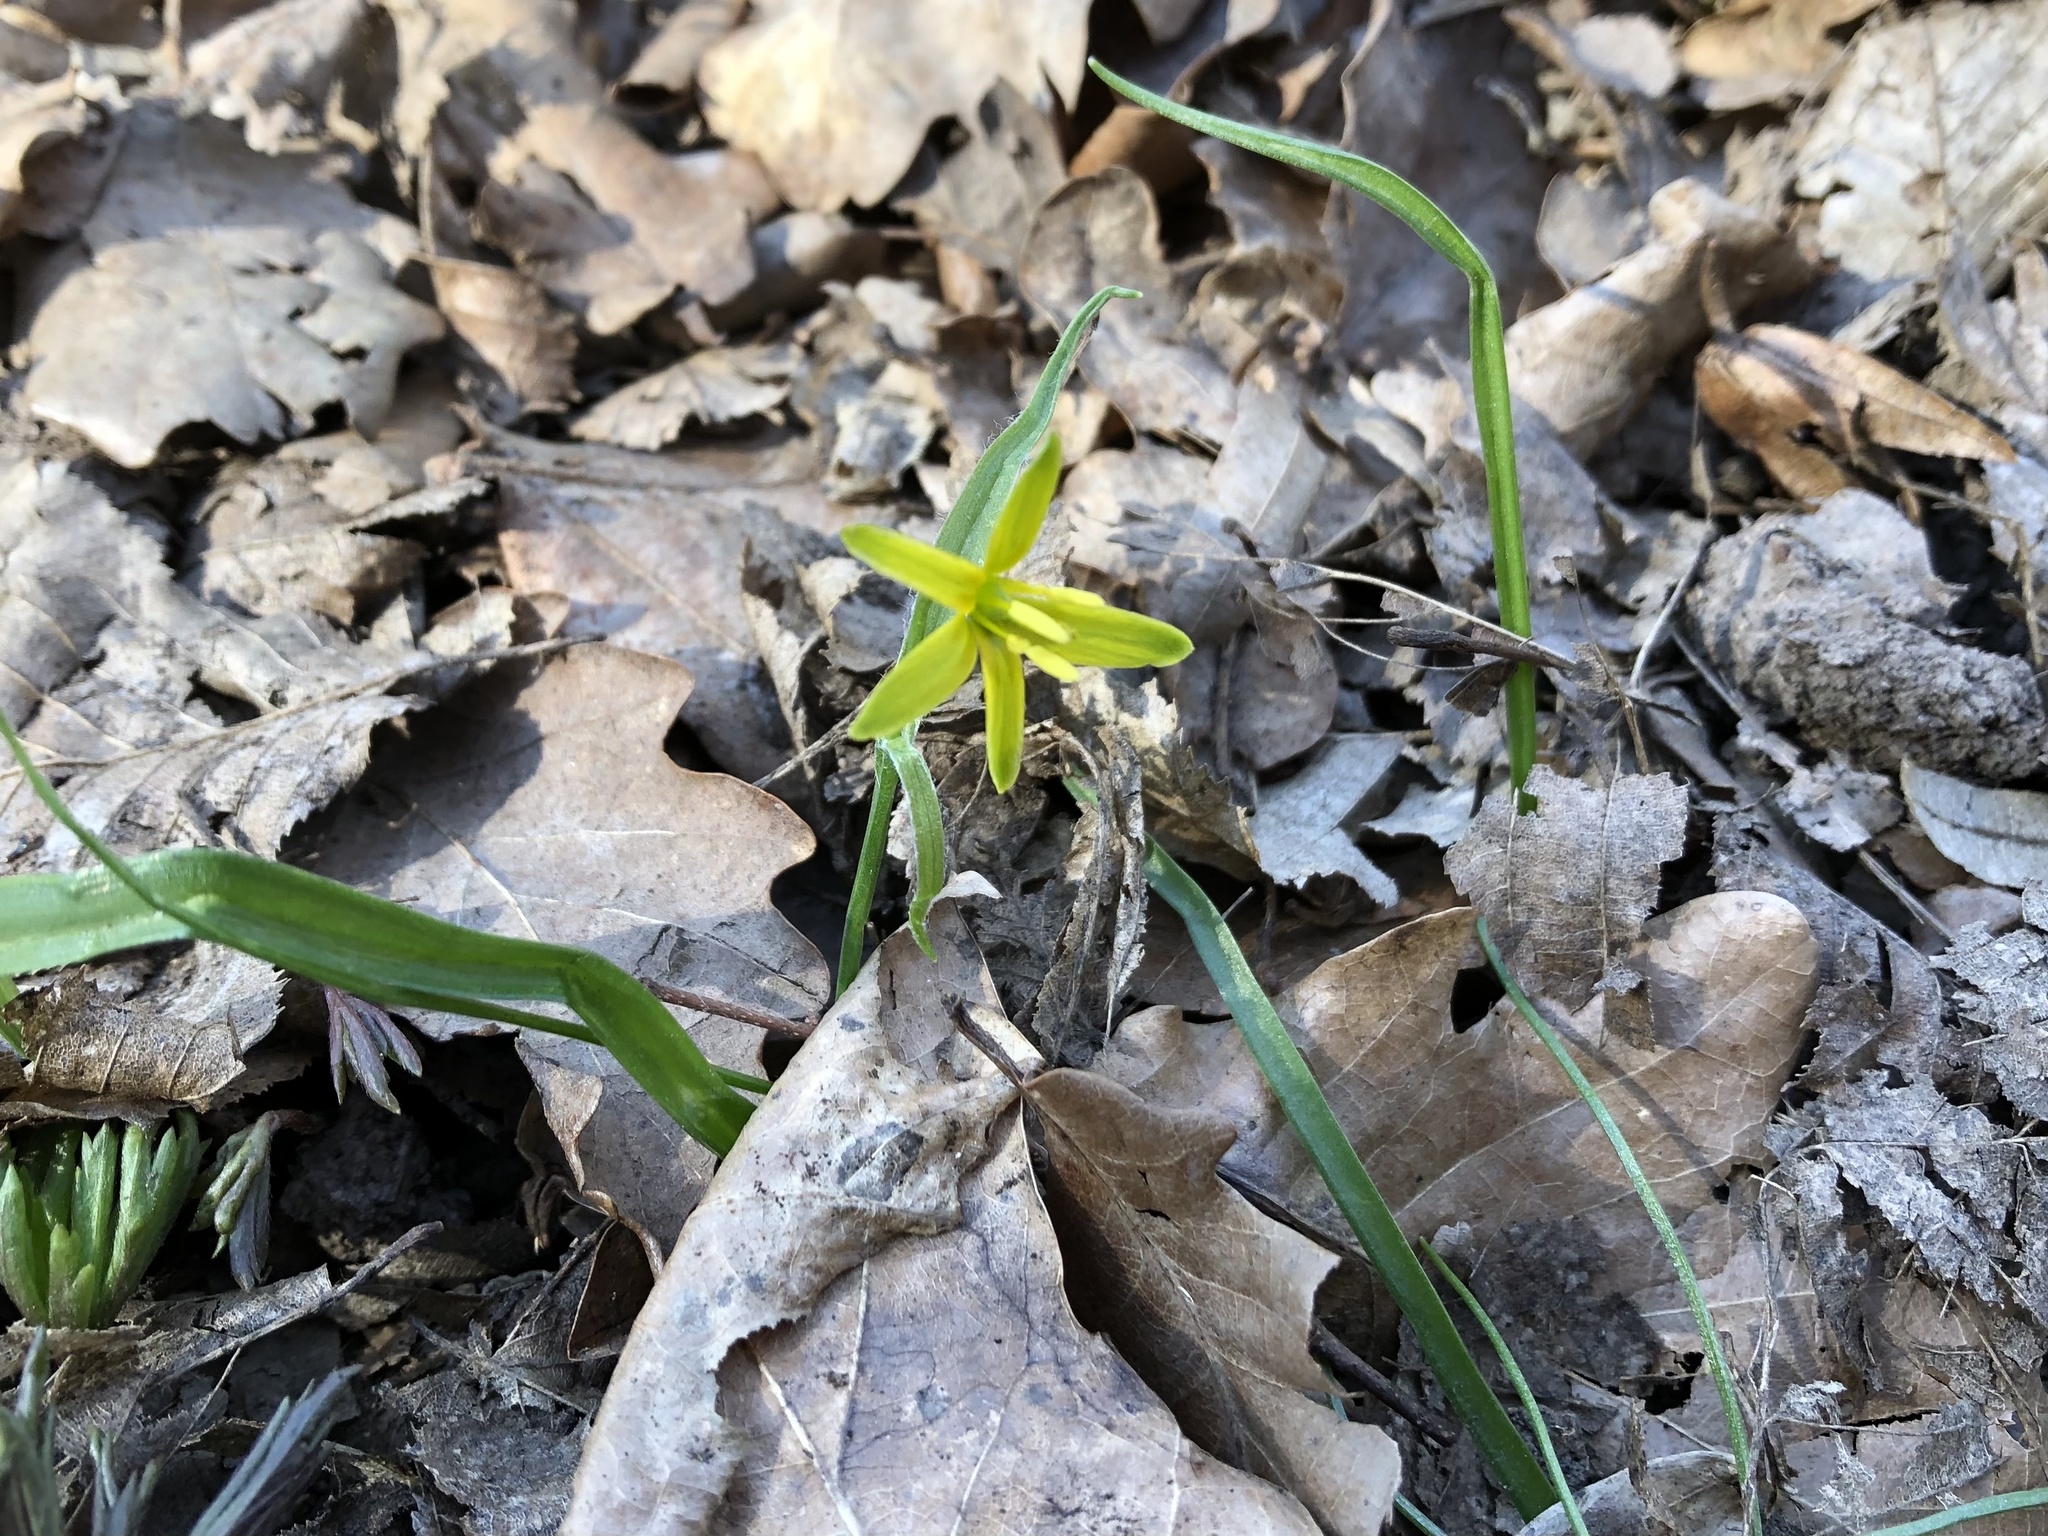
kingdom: Plantae
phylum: Tracheophyta
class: Liliopsida
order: Liliales
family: Liliaceae
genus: Gagea
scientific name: Gagea lutea
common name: Yellow star-of-bethlehem
